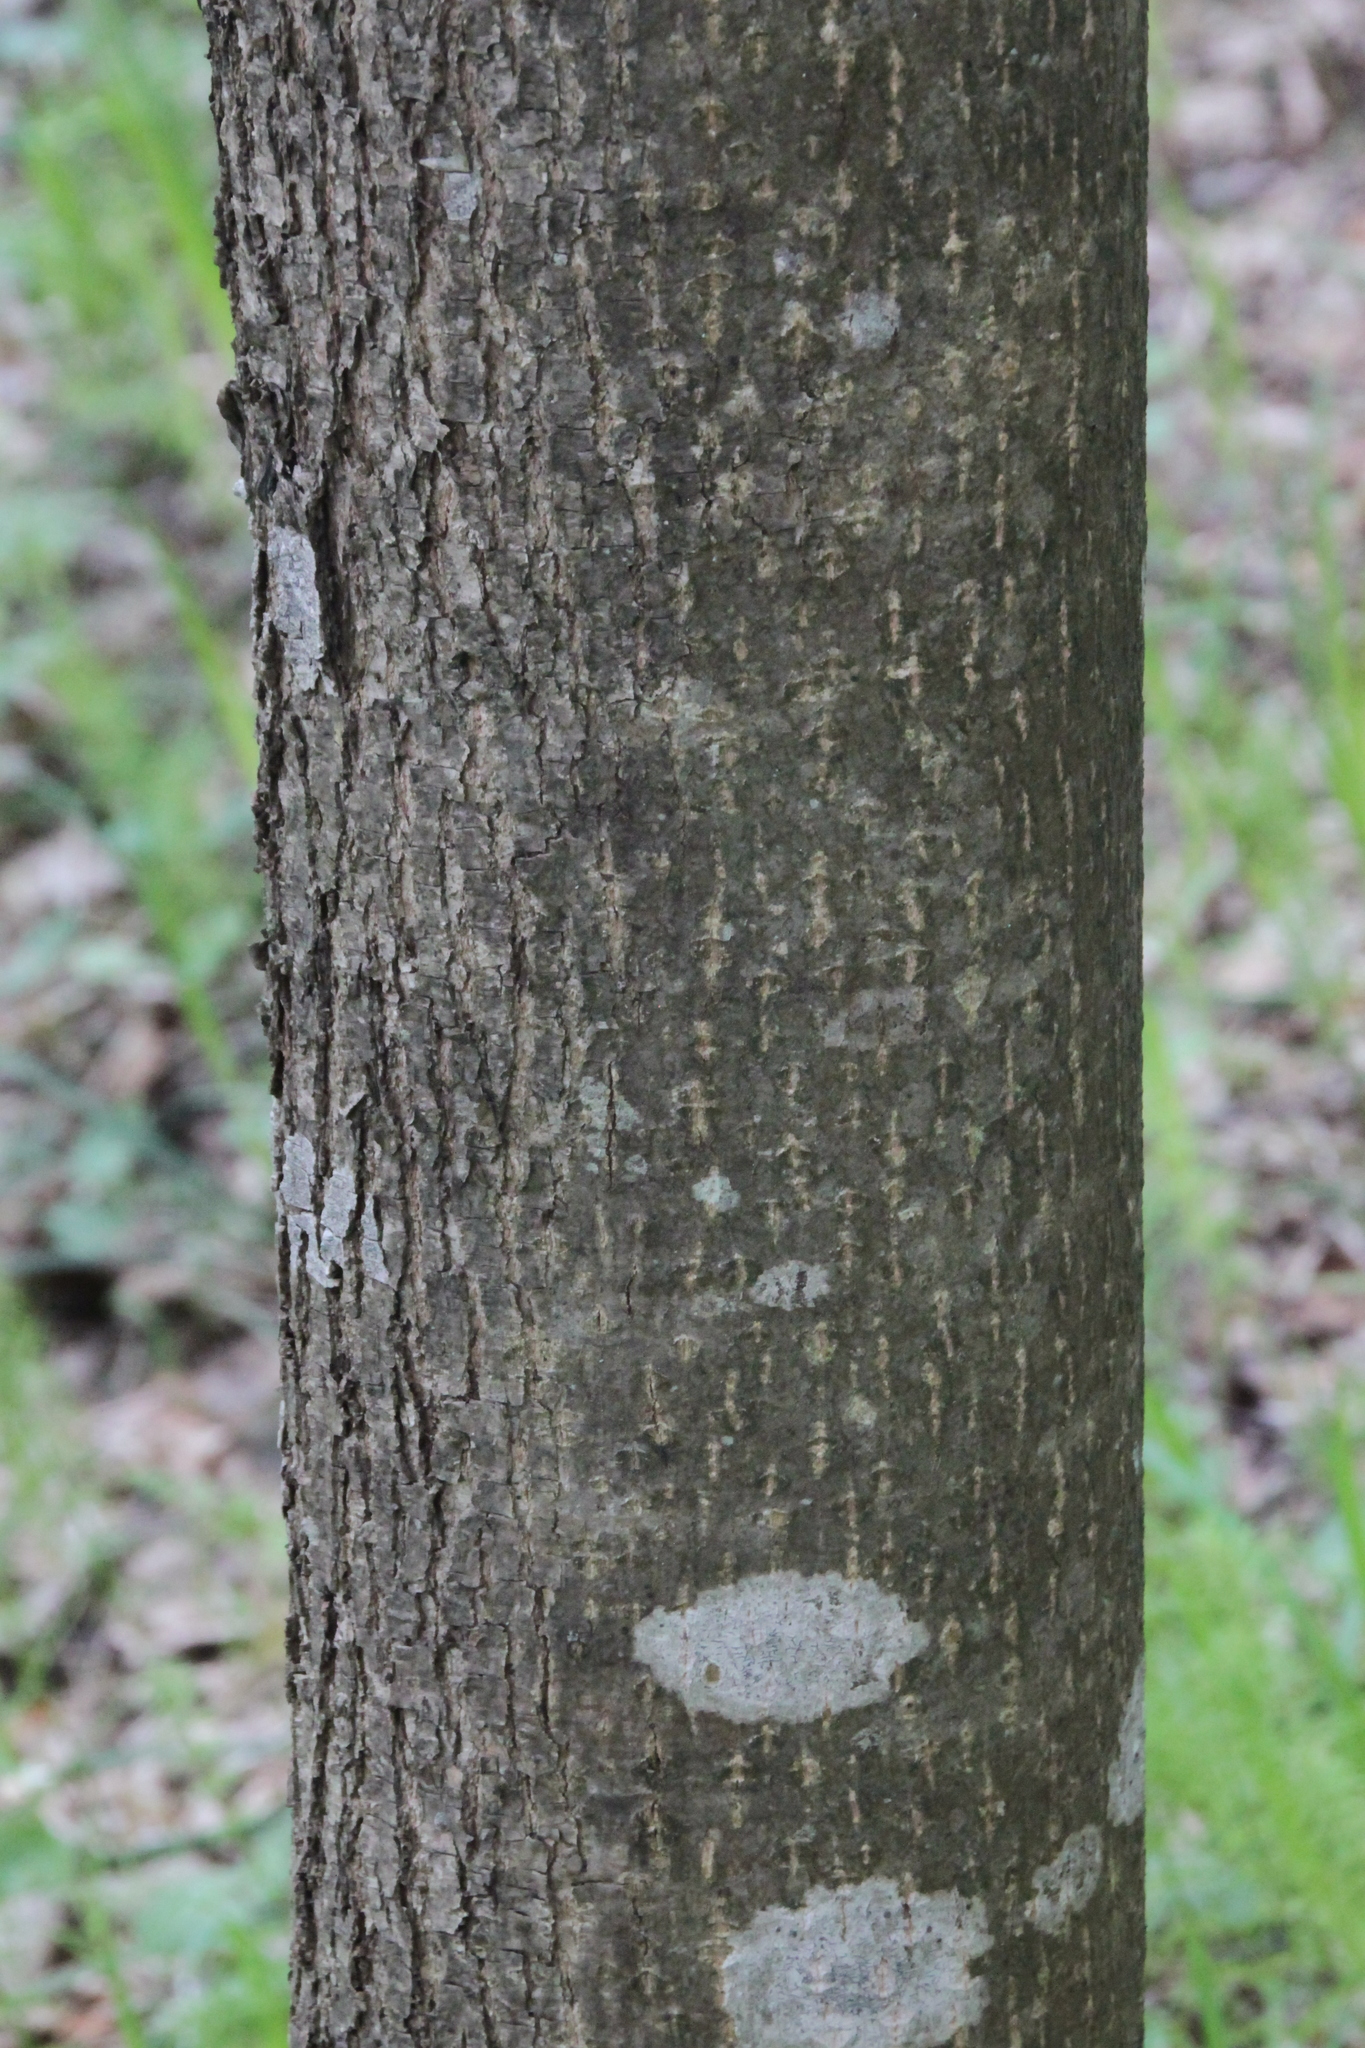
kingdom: Plantae
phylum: Tracheophyta
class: Magnoliopsida
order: Malvales
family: Malvaceae
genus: Tilia
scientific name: Tilia cordata
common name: Small-leaved lime
